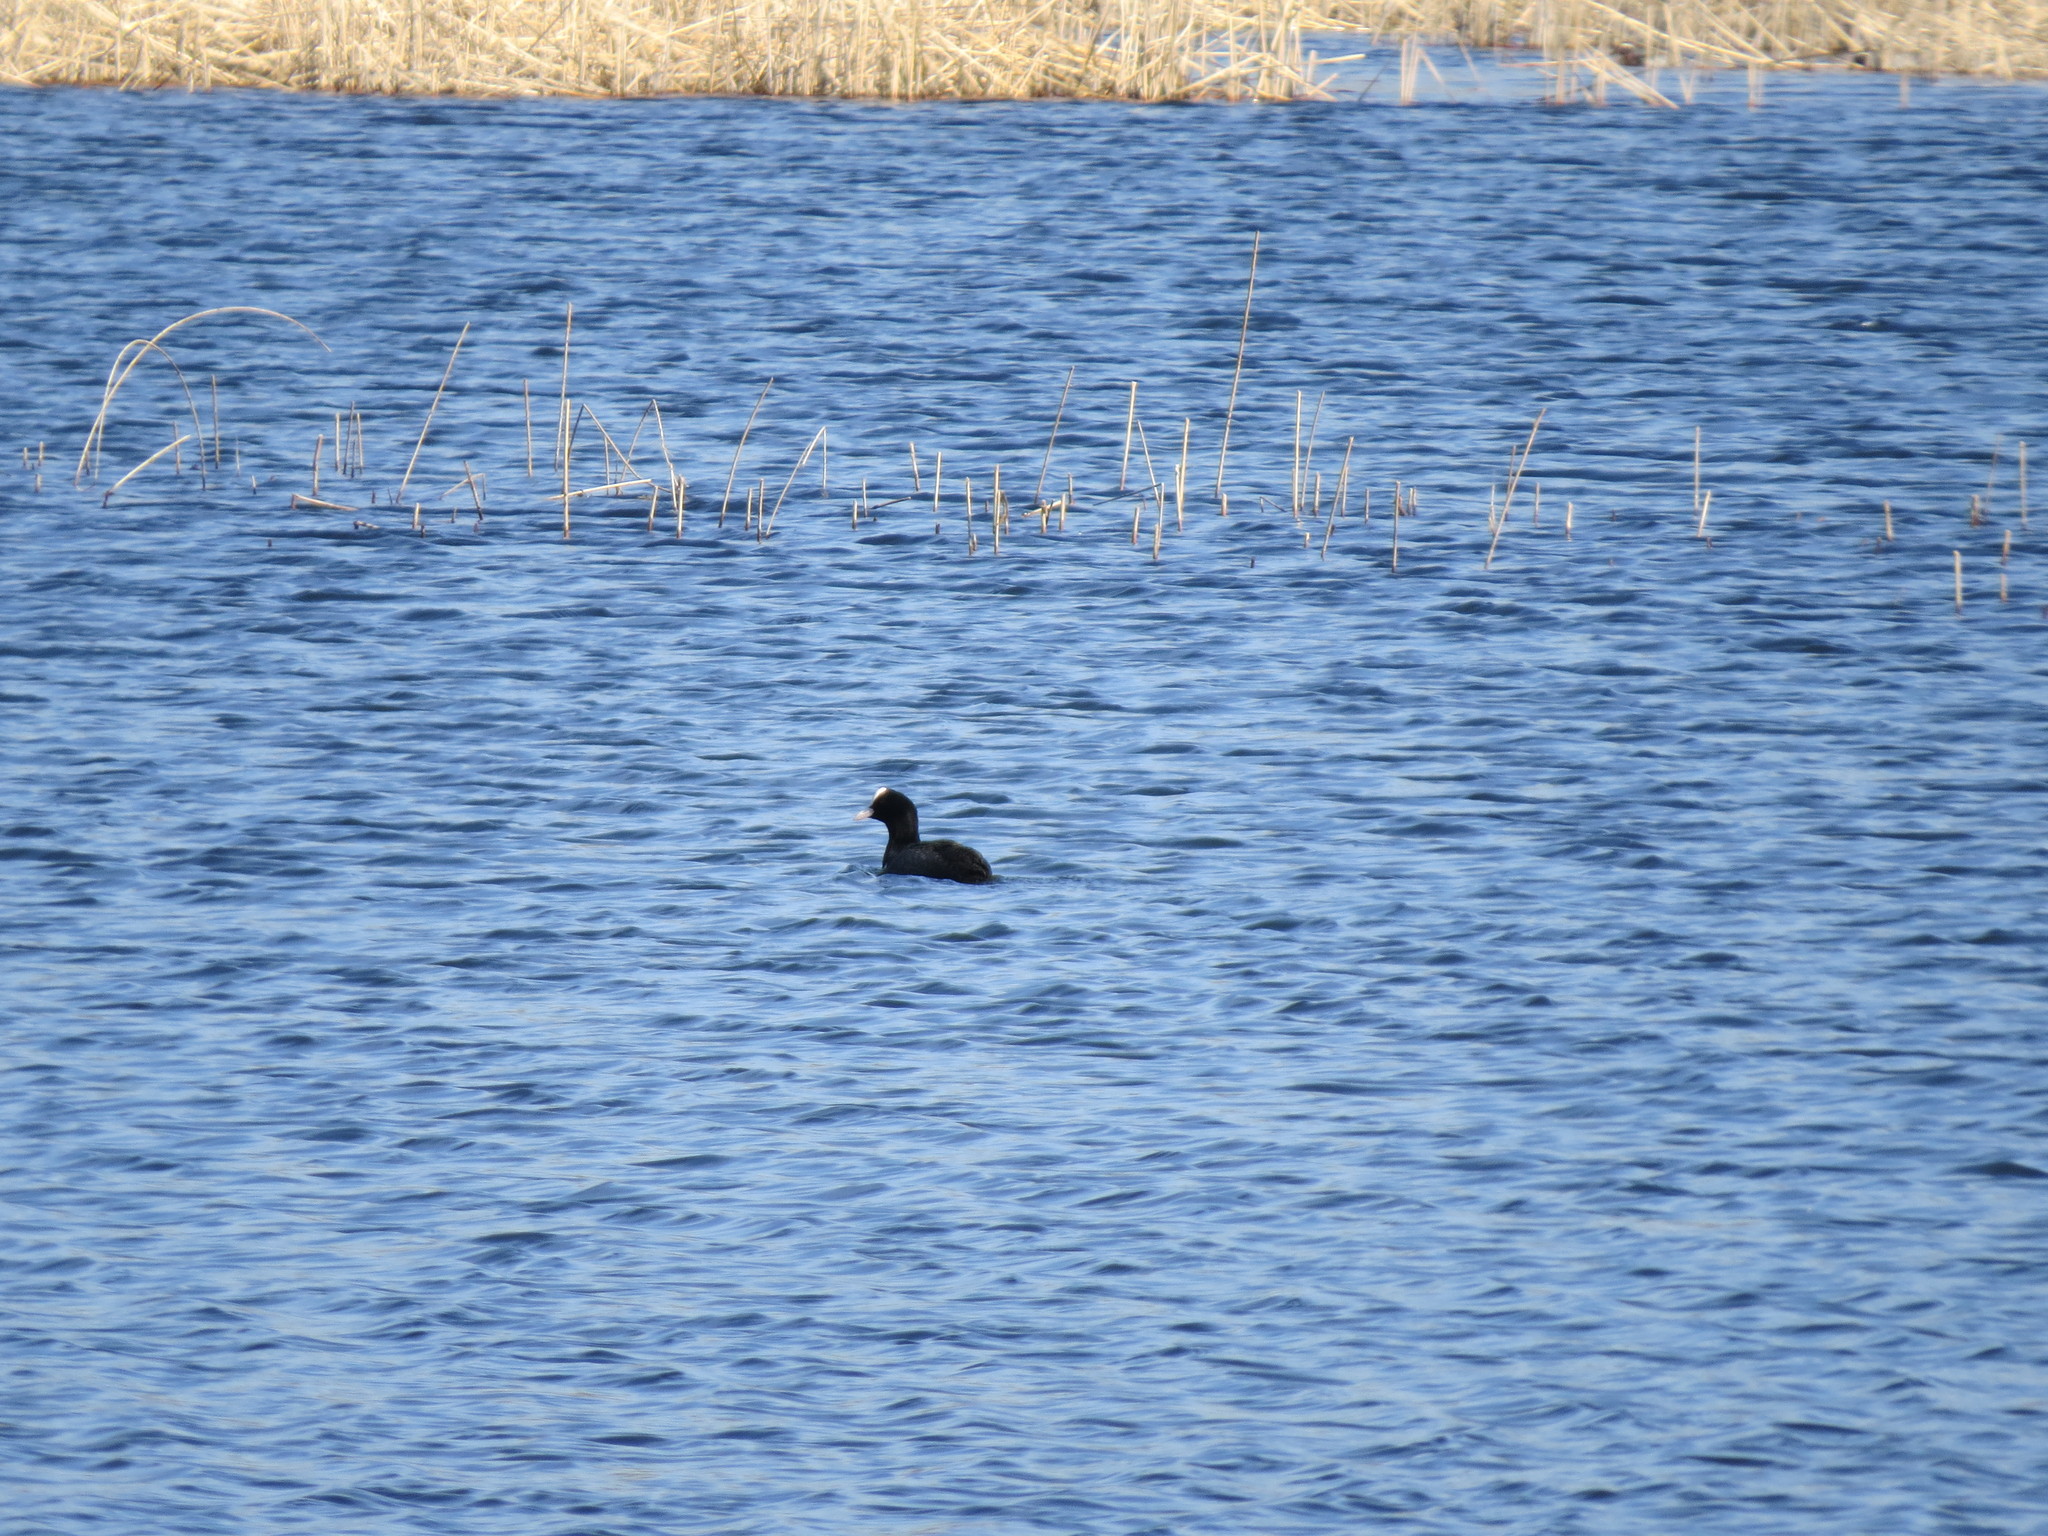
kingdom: Animalia
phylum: Chordata
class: Aves
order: Gruiformes
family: Rallidae
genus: Fulica
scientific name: Fulica atra
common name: Eurasian coot
